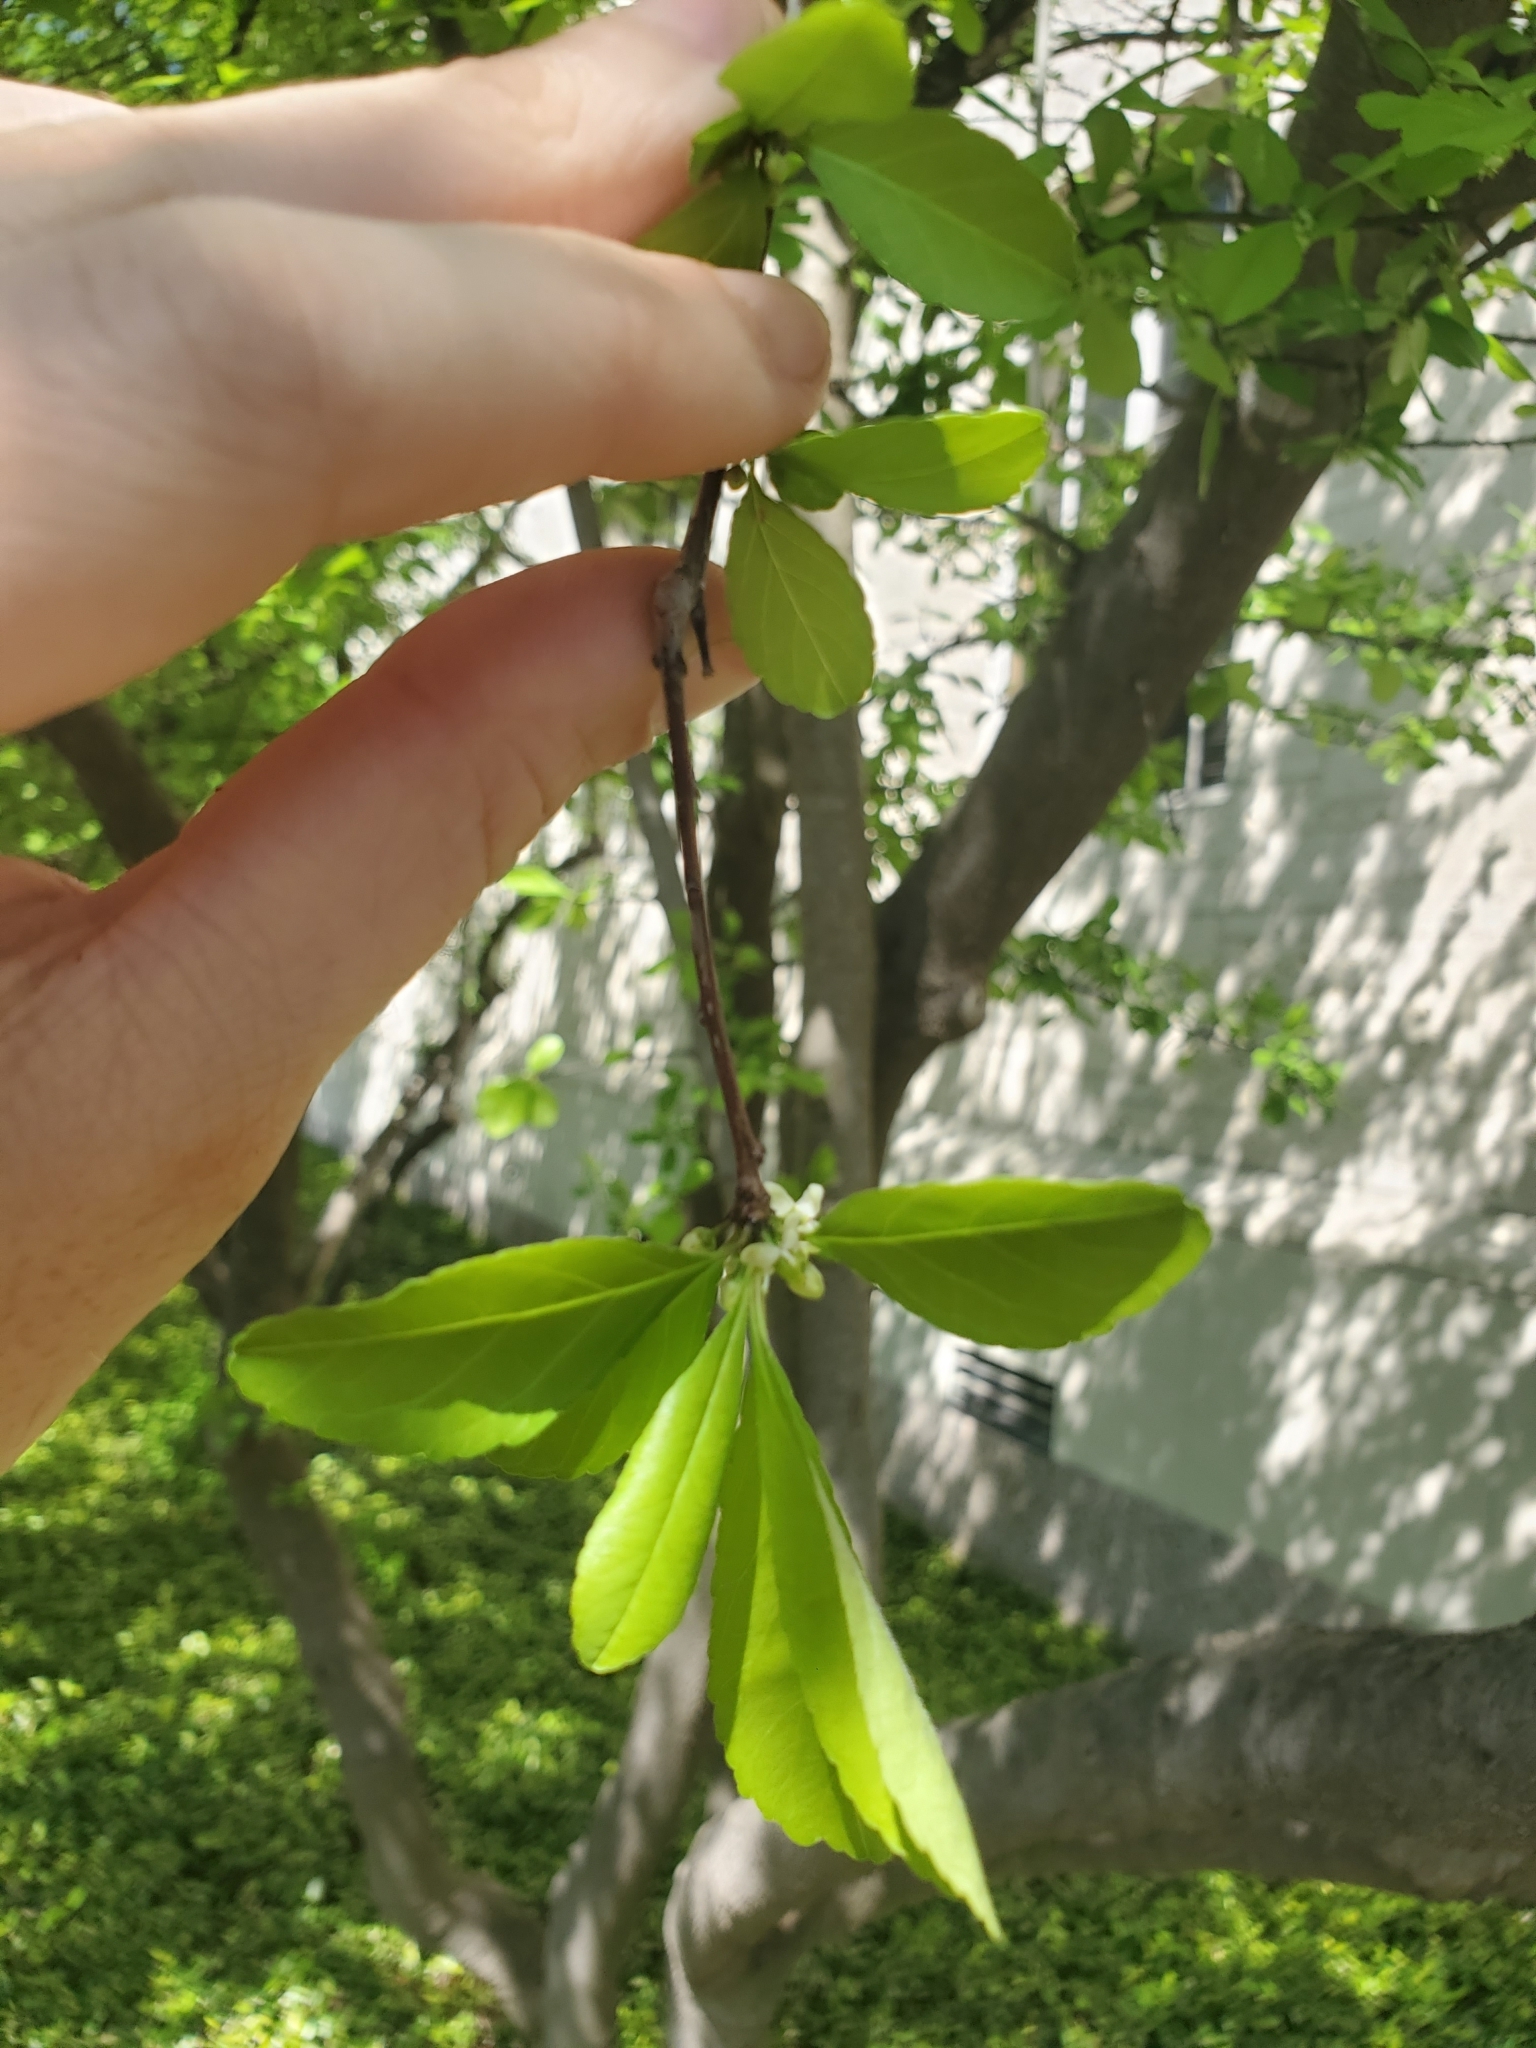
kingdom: Plantae
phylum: Tracheophyta
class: Magnoliopsida
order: Aquifoliales
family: Aquifoliaceae
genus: Ilex
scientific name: Ilex decidua
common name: Possum-haw
